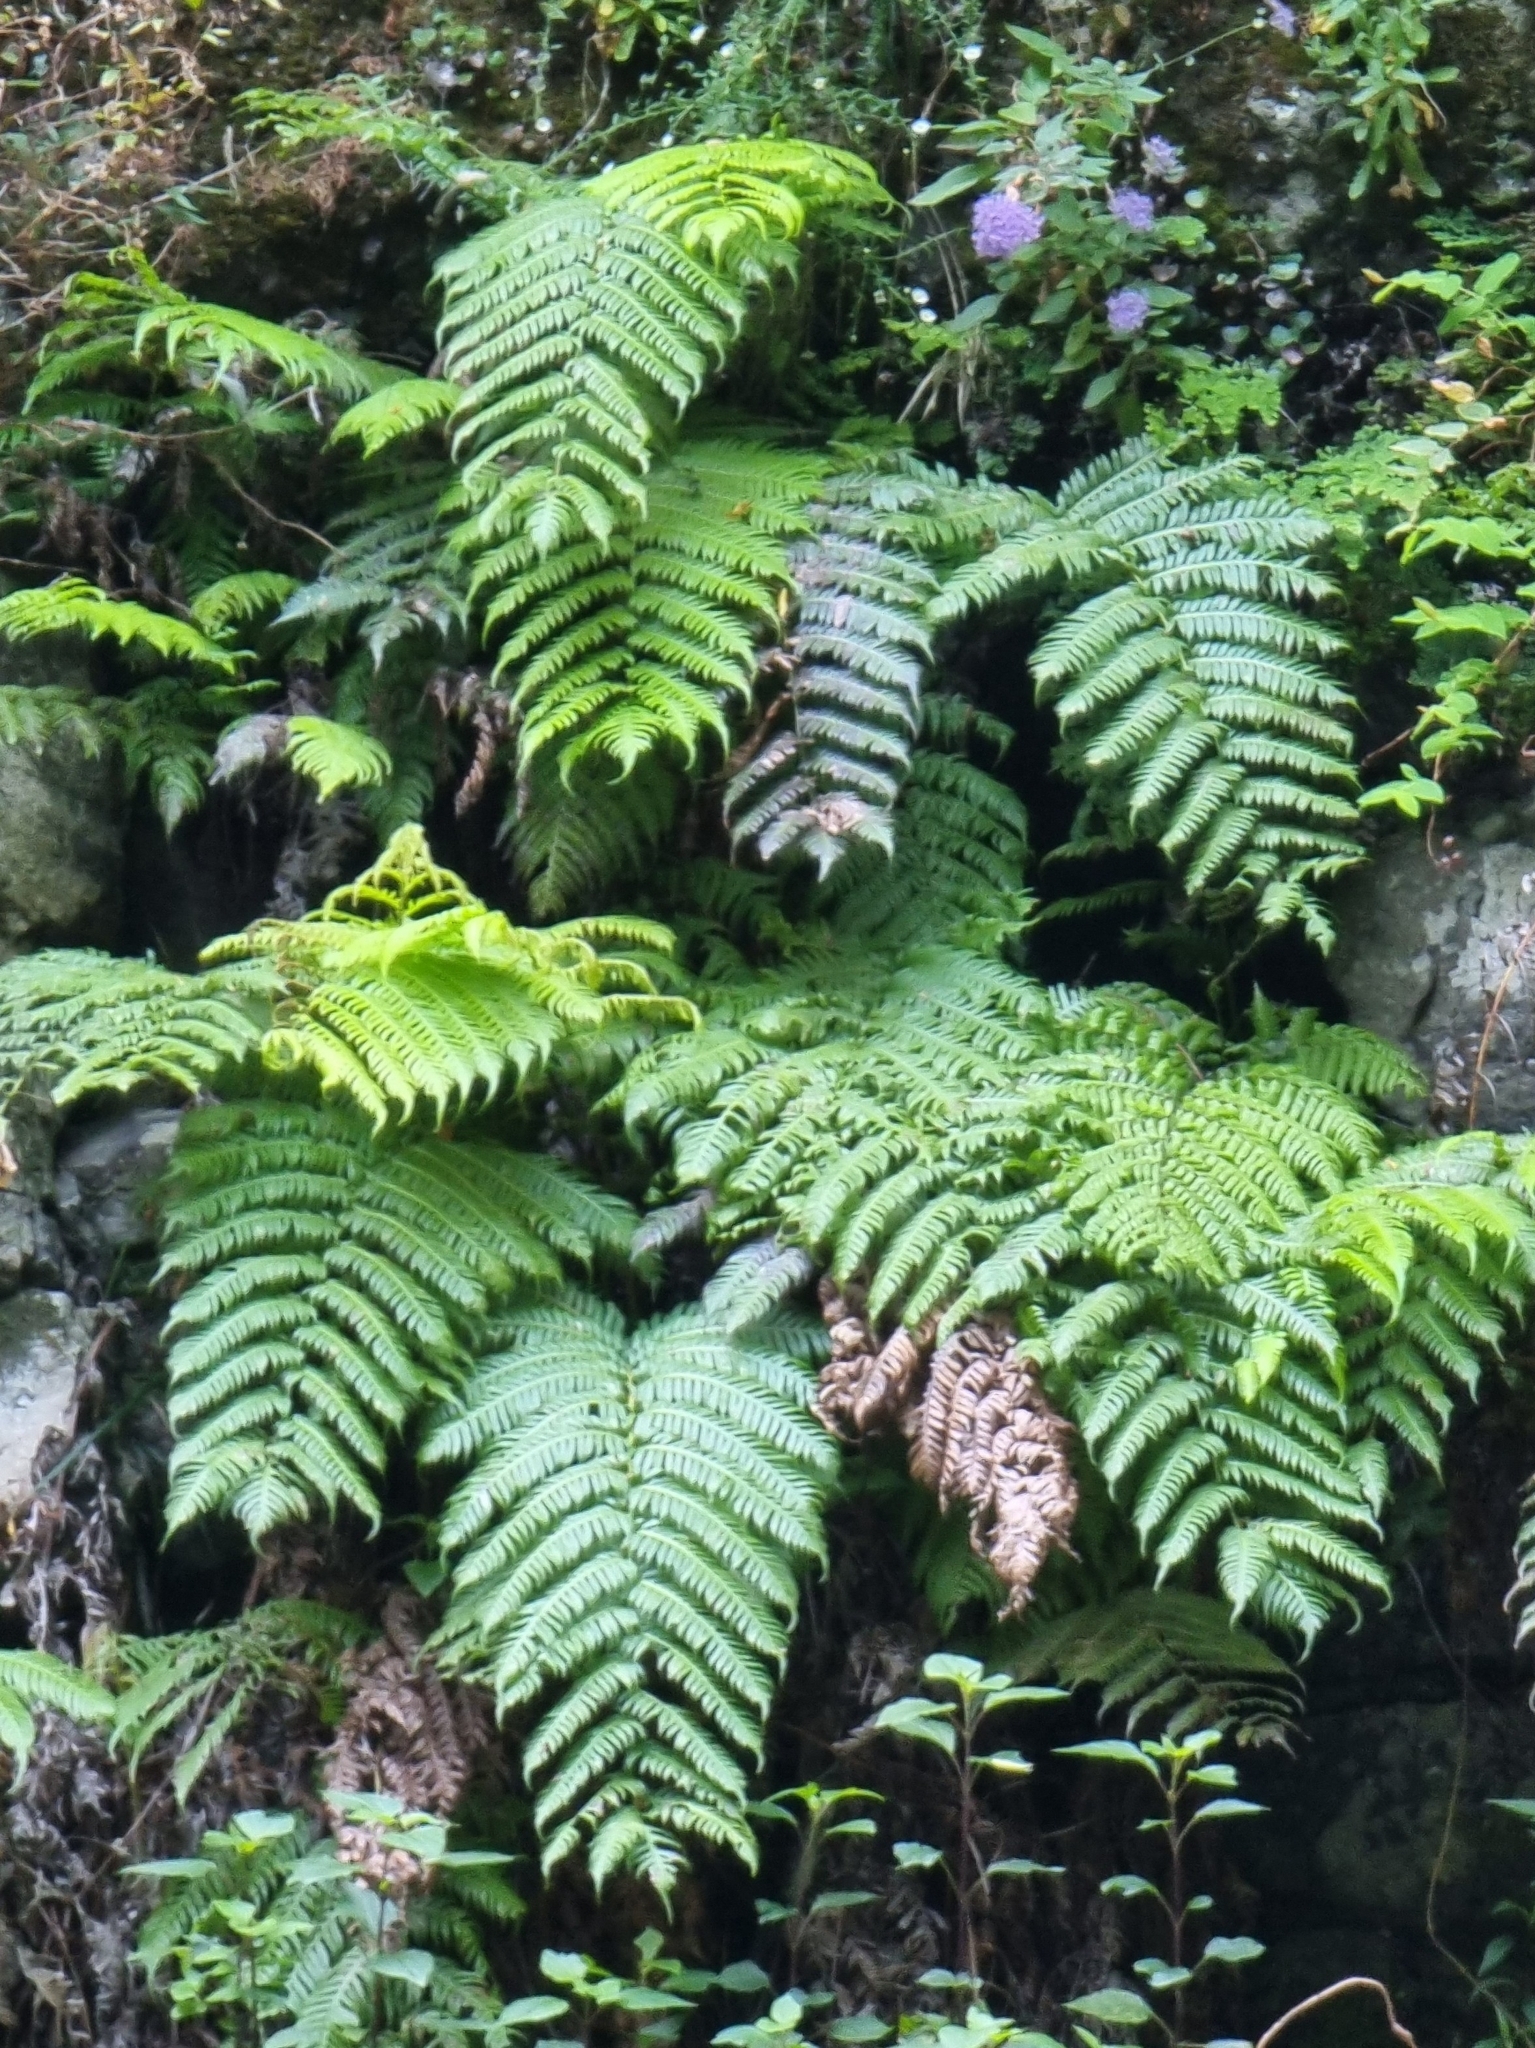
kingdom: Plantae
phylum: Tracheophyta
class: Polypodiopsida
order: Polypodiales
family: Blechnaceae
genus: Woodwardia
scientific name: Woodwardia radicans
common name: Rooting chainfern
